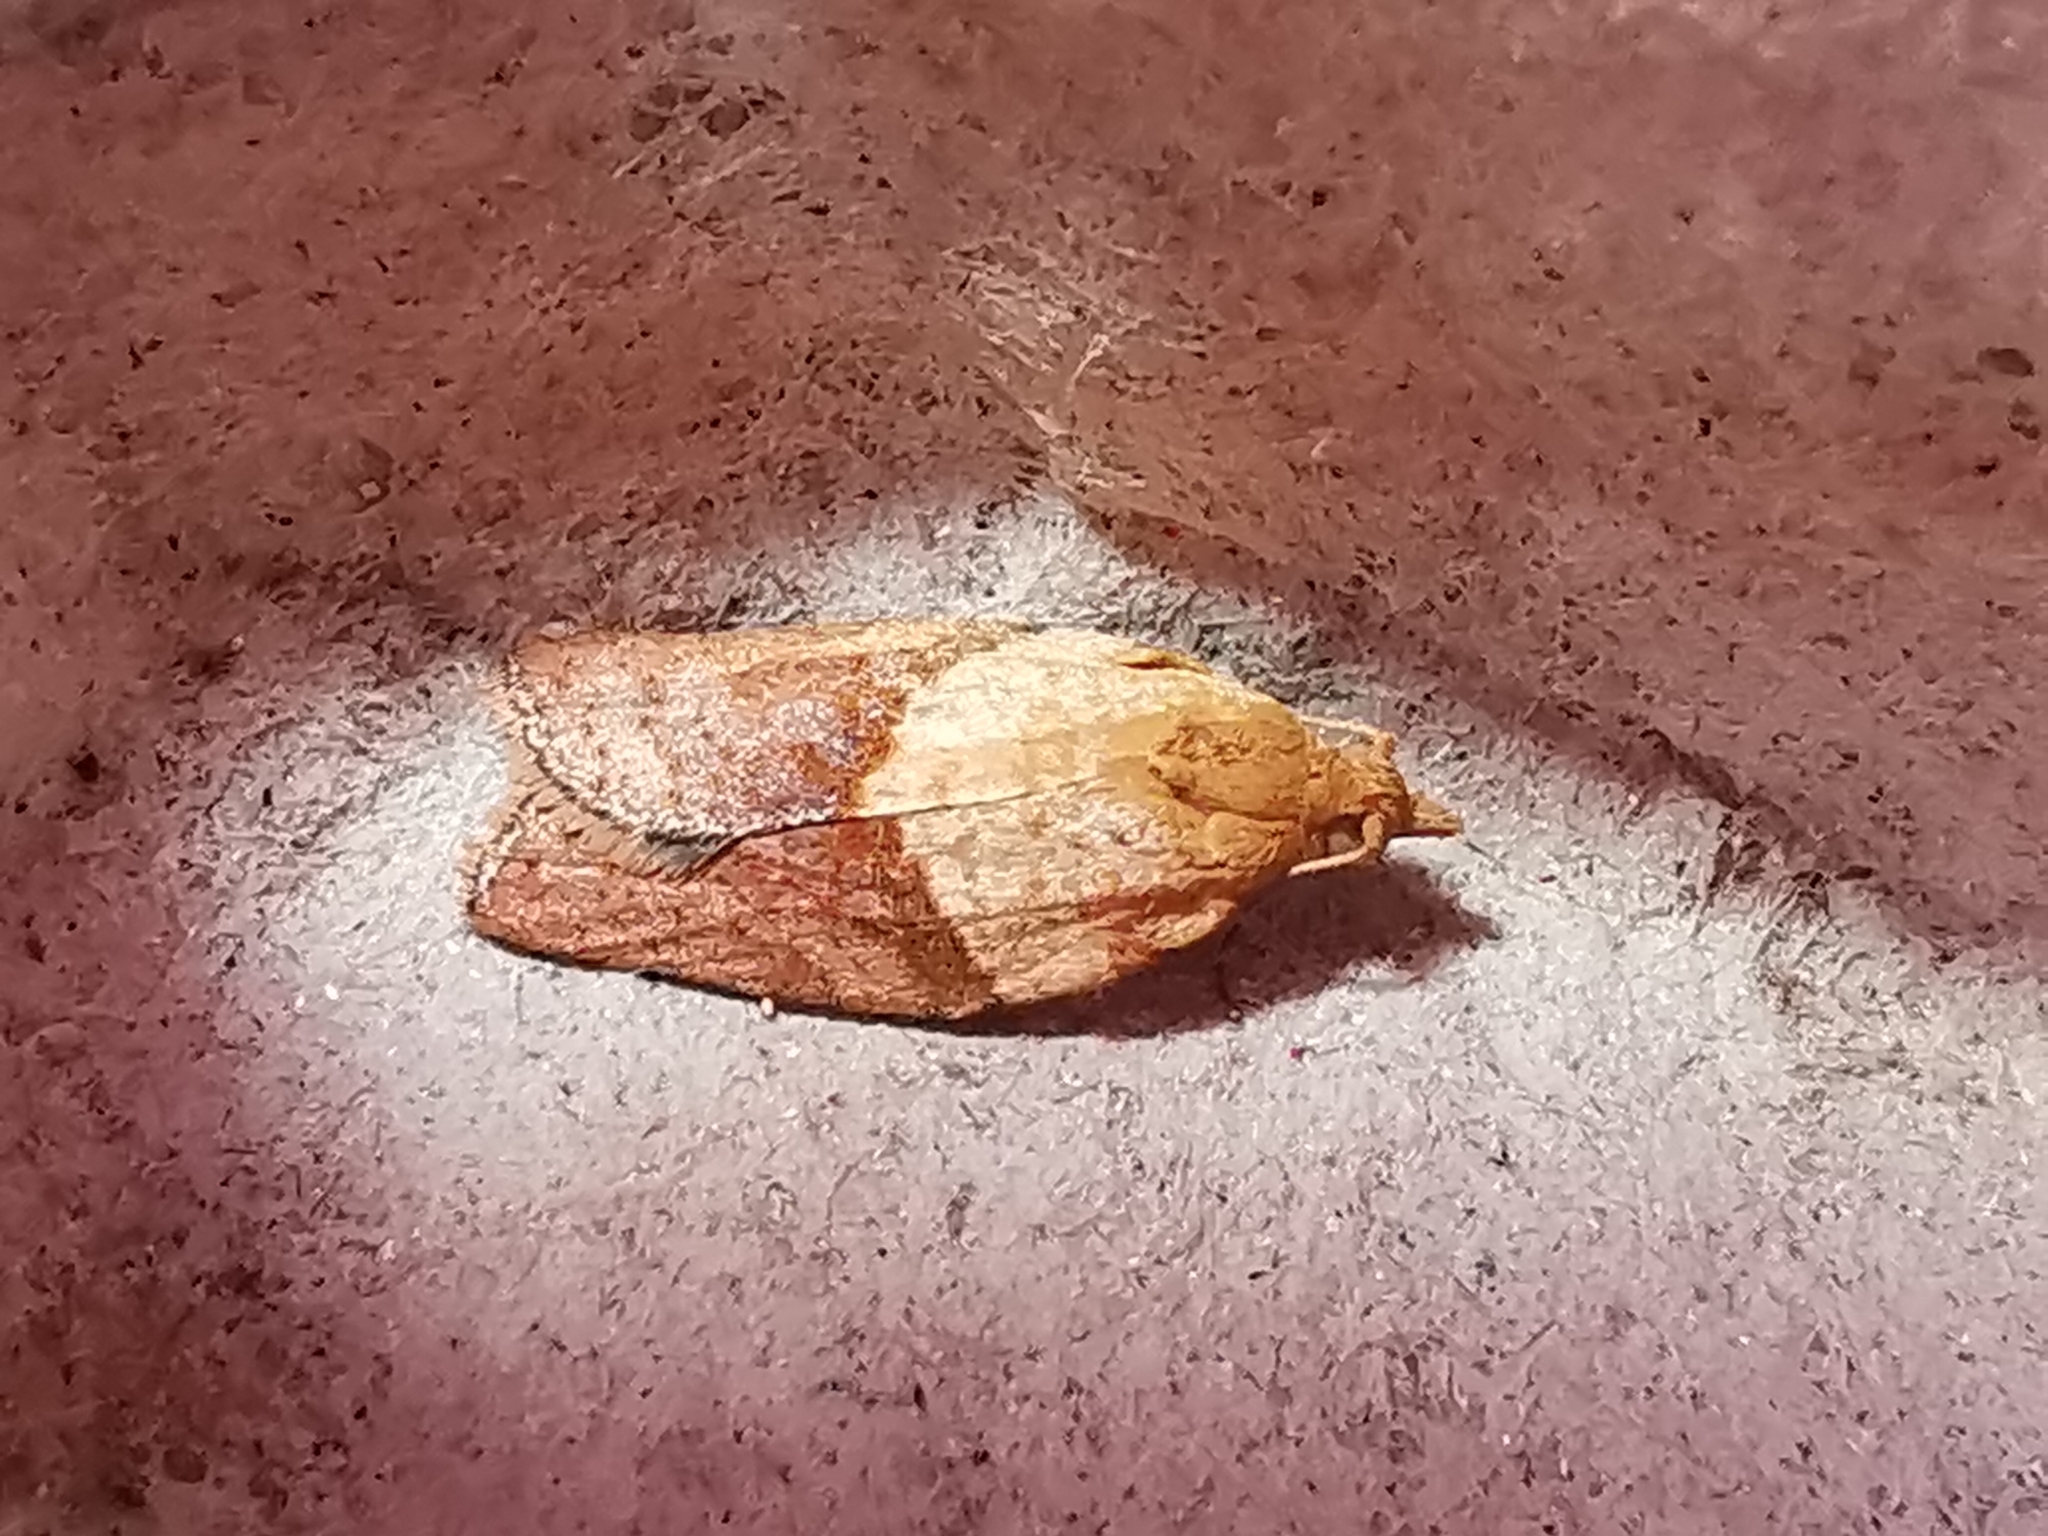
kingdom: Animalia
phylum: Arthropoda
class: Insecta
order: Lepidoptera
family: Tortricidae
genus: Epiphyas
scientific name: Epiphyas postvittana
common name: Light brown apple moth
